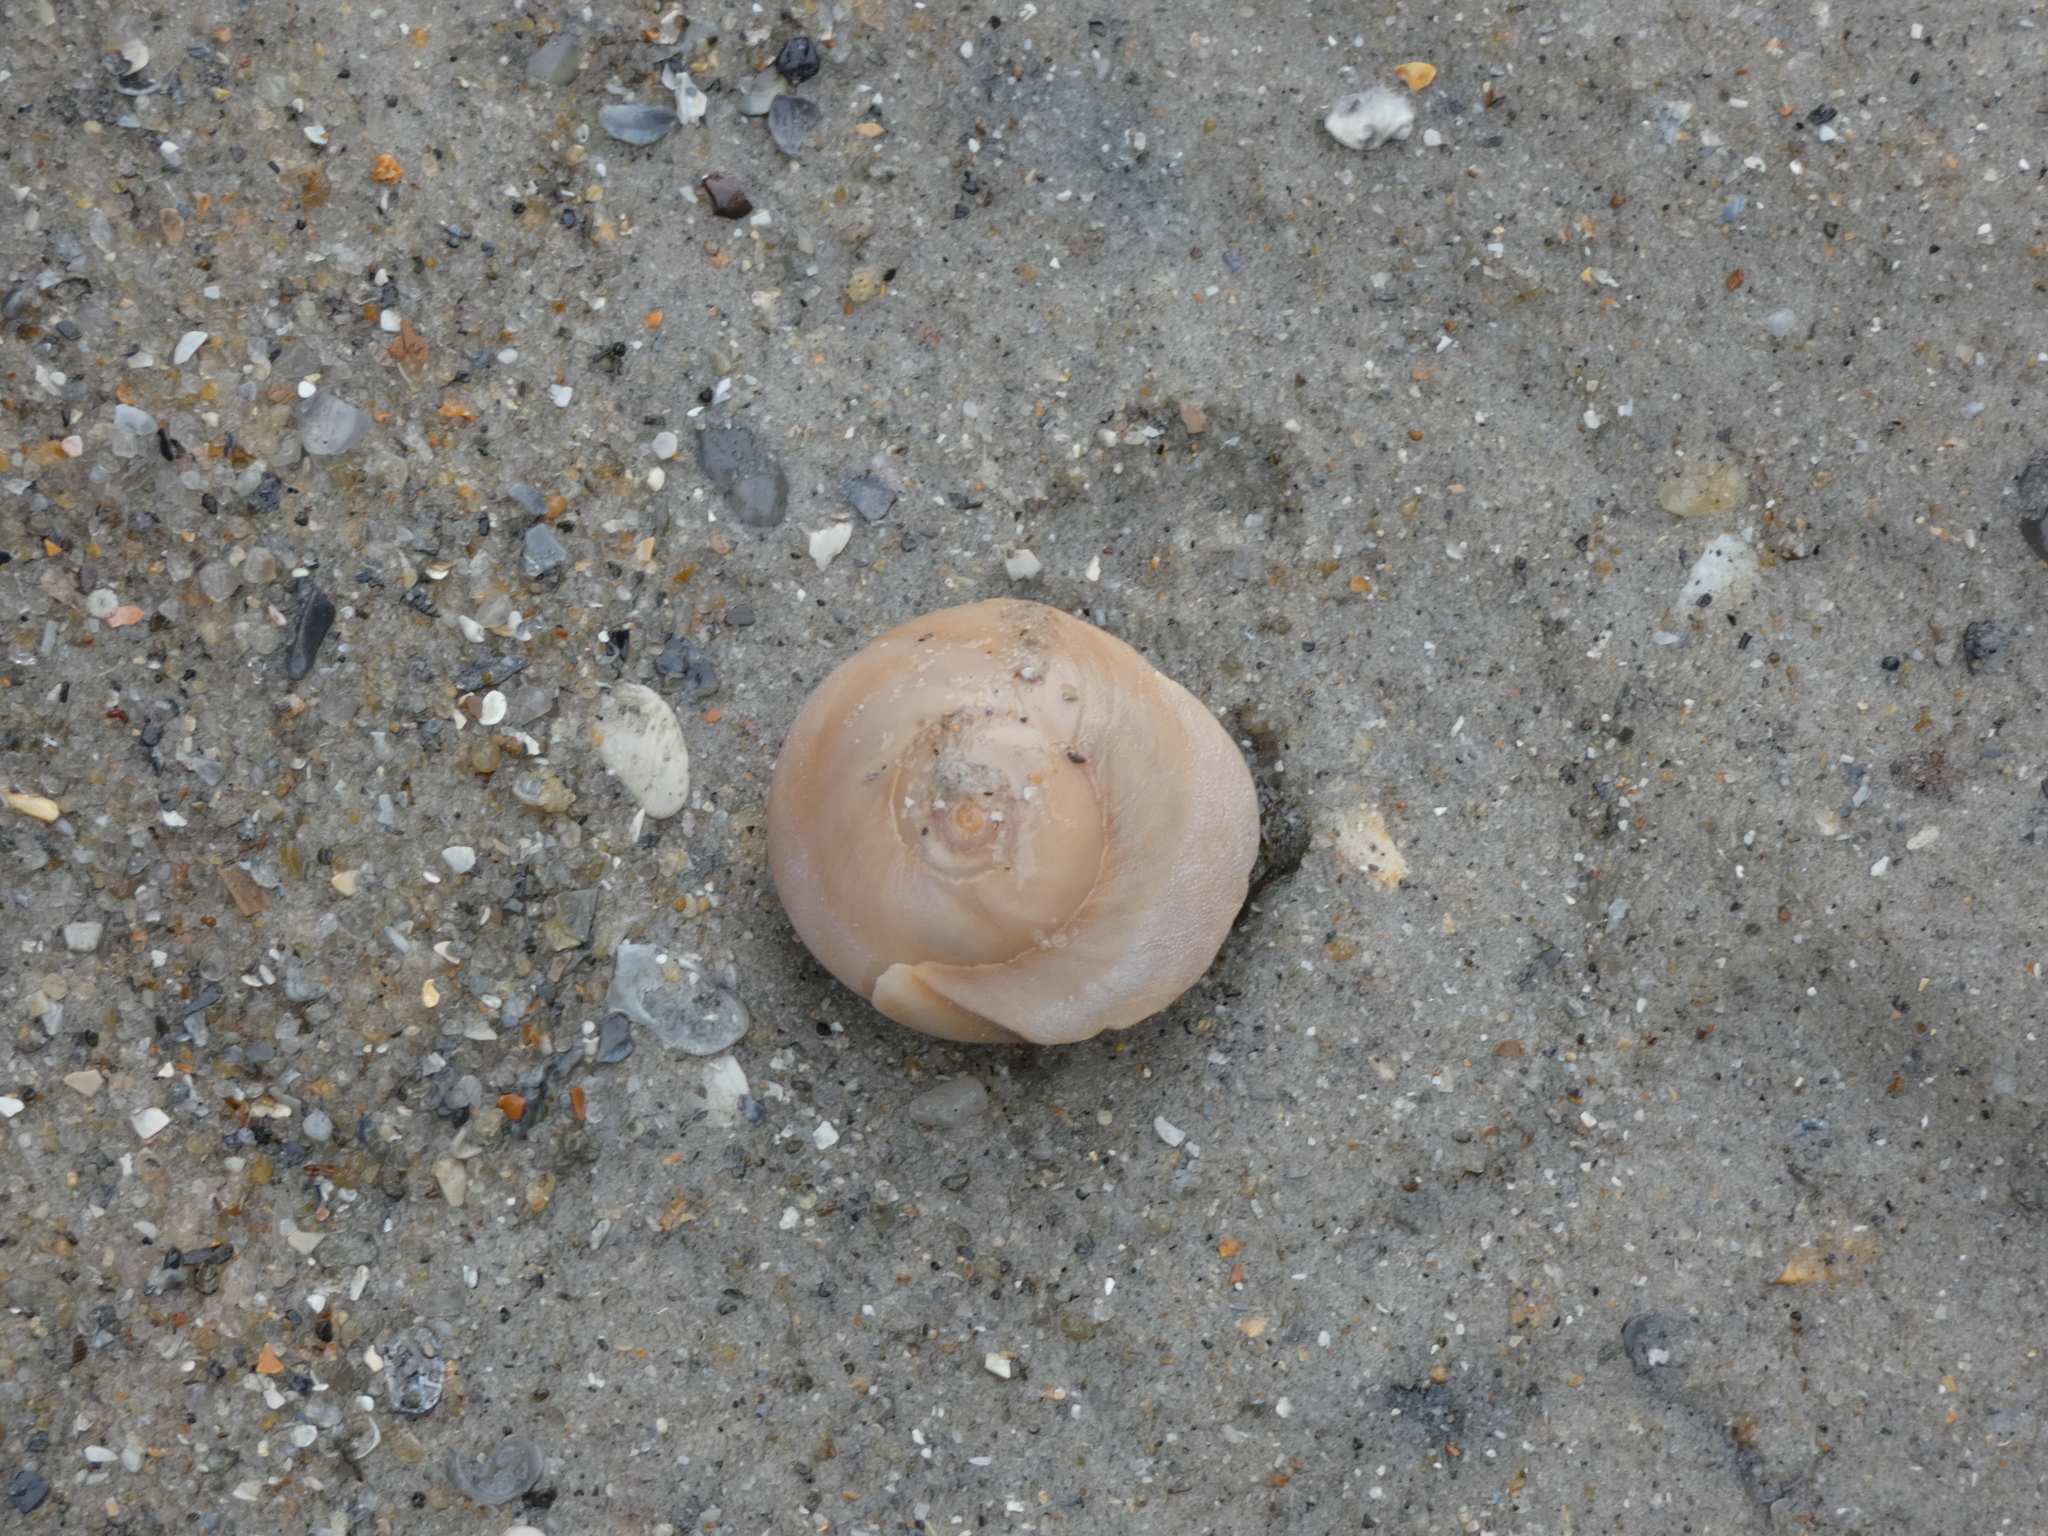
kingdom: Animalia
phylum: Mollusca
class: Gastropoda
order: Littorinimorpha
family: Naticidae
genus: Neverita
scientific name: Neverita duplicata
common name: Lobed moonsnail
